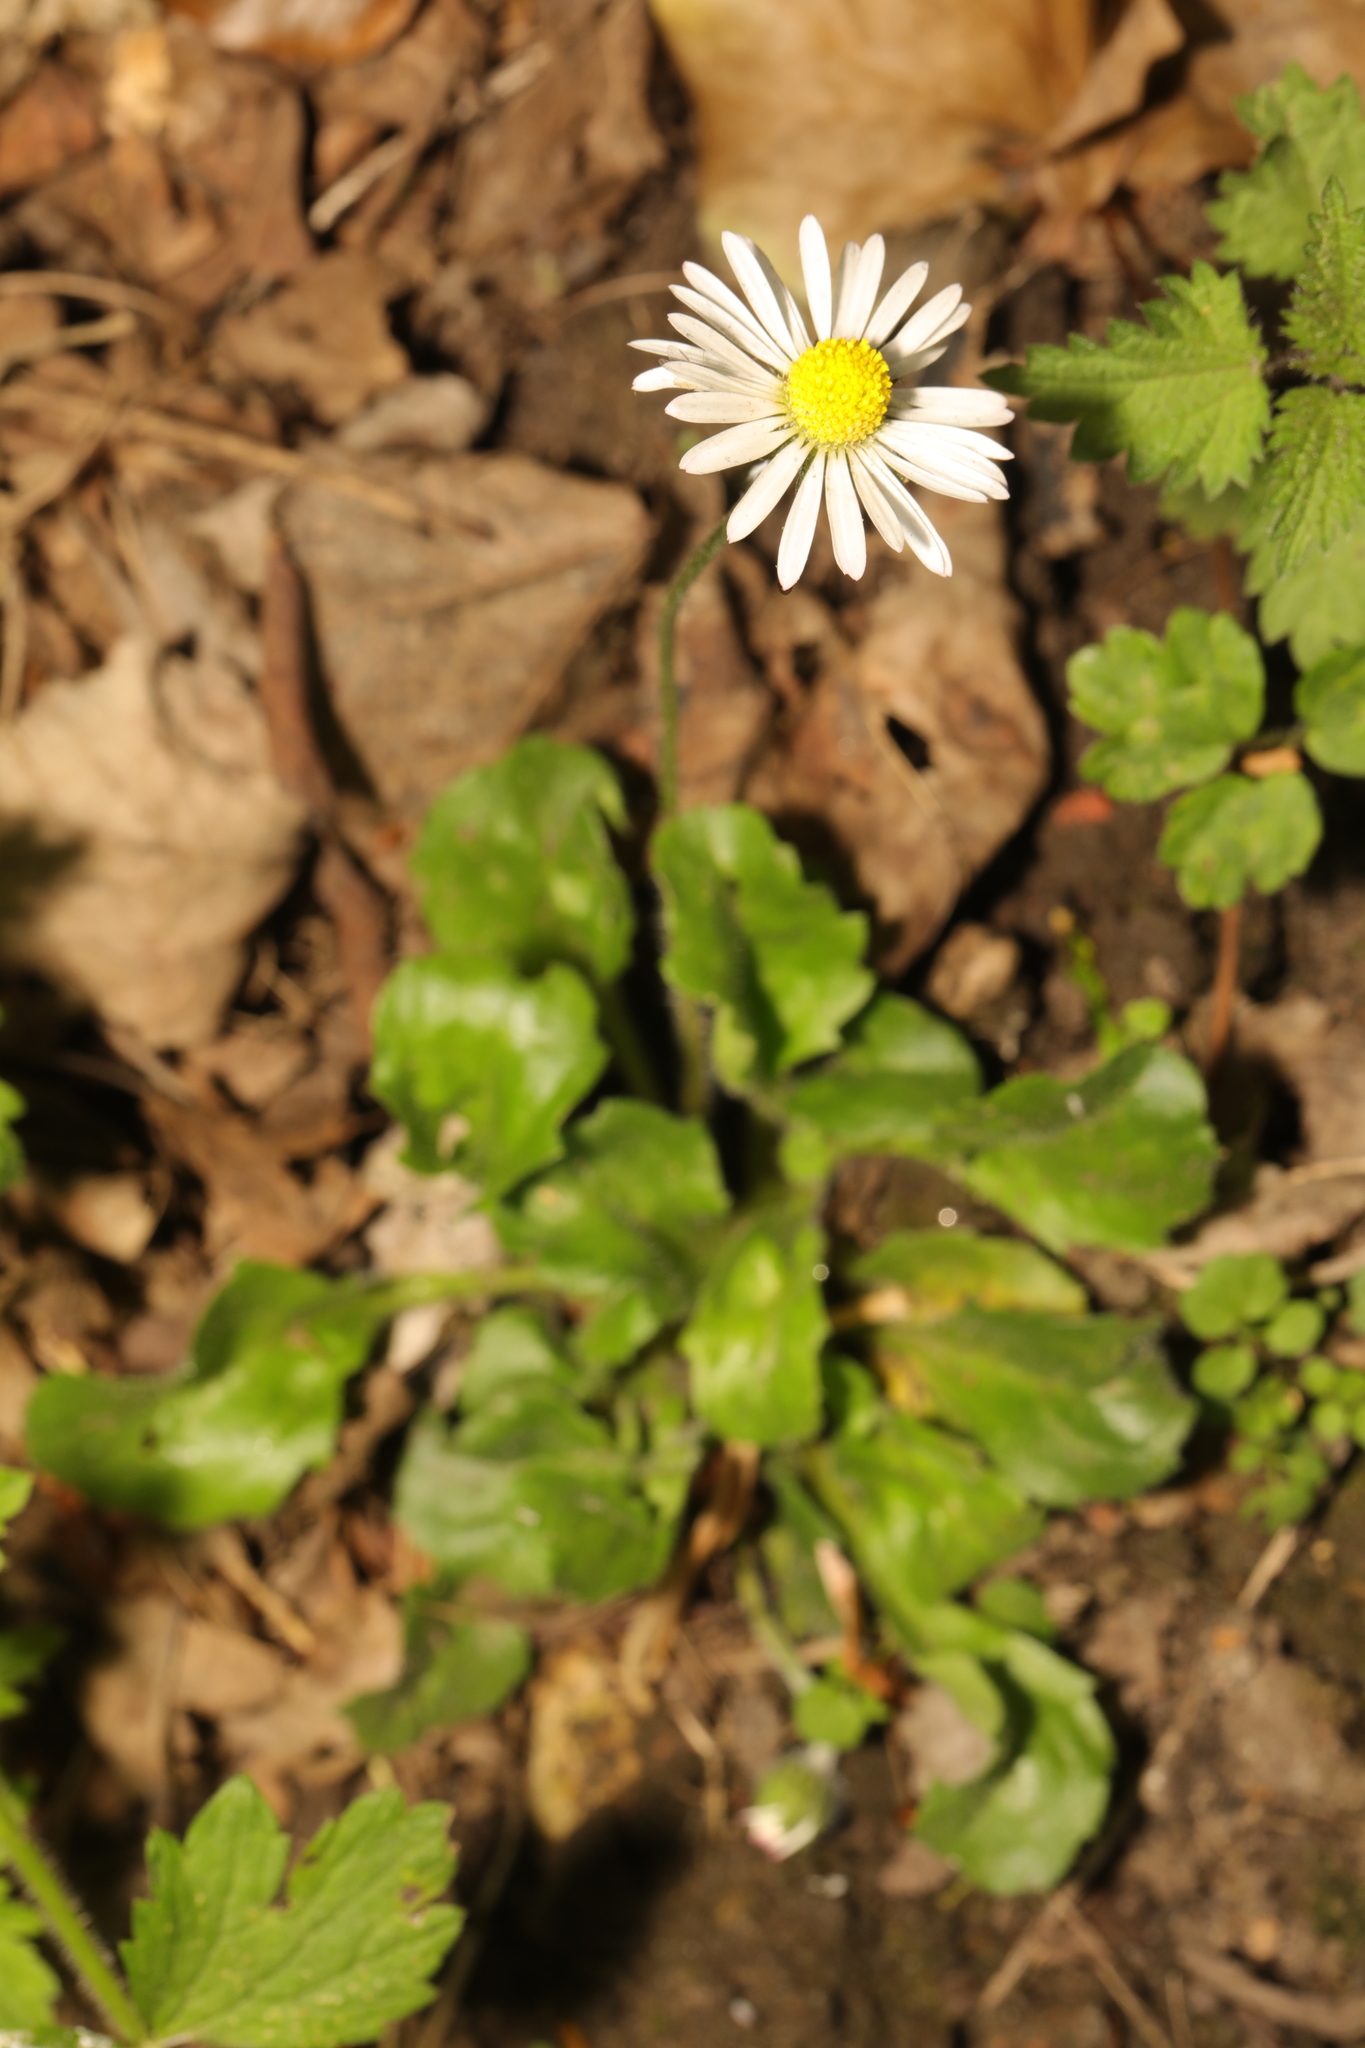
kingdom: Plantae
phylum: Tracheophyta
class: Magnoliopsida
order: Asterales
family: Asteraceae
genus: Bellis
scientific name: Bellis perennis
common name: Lawndaisy
